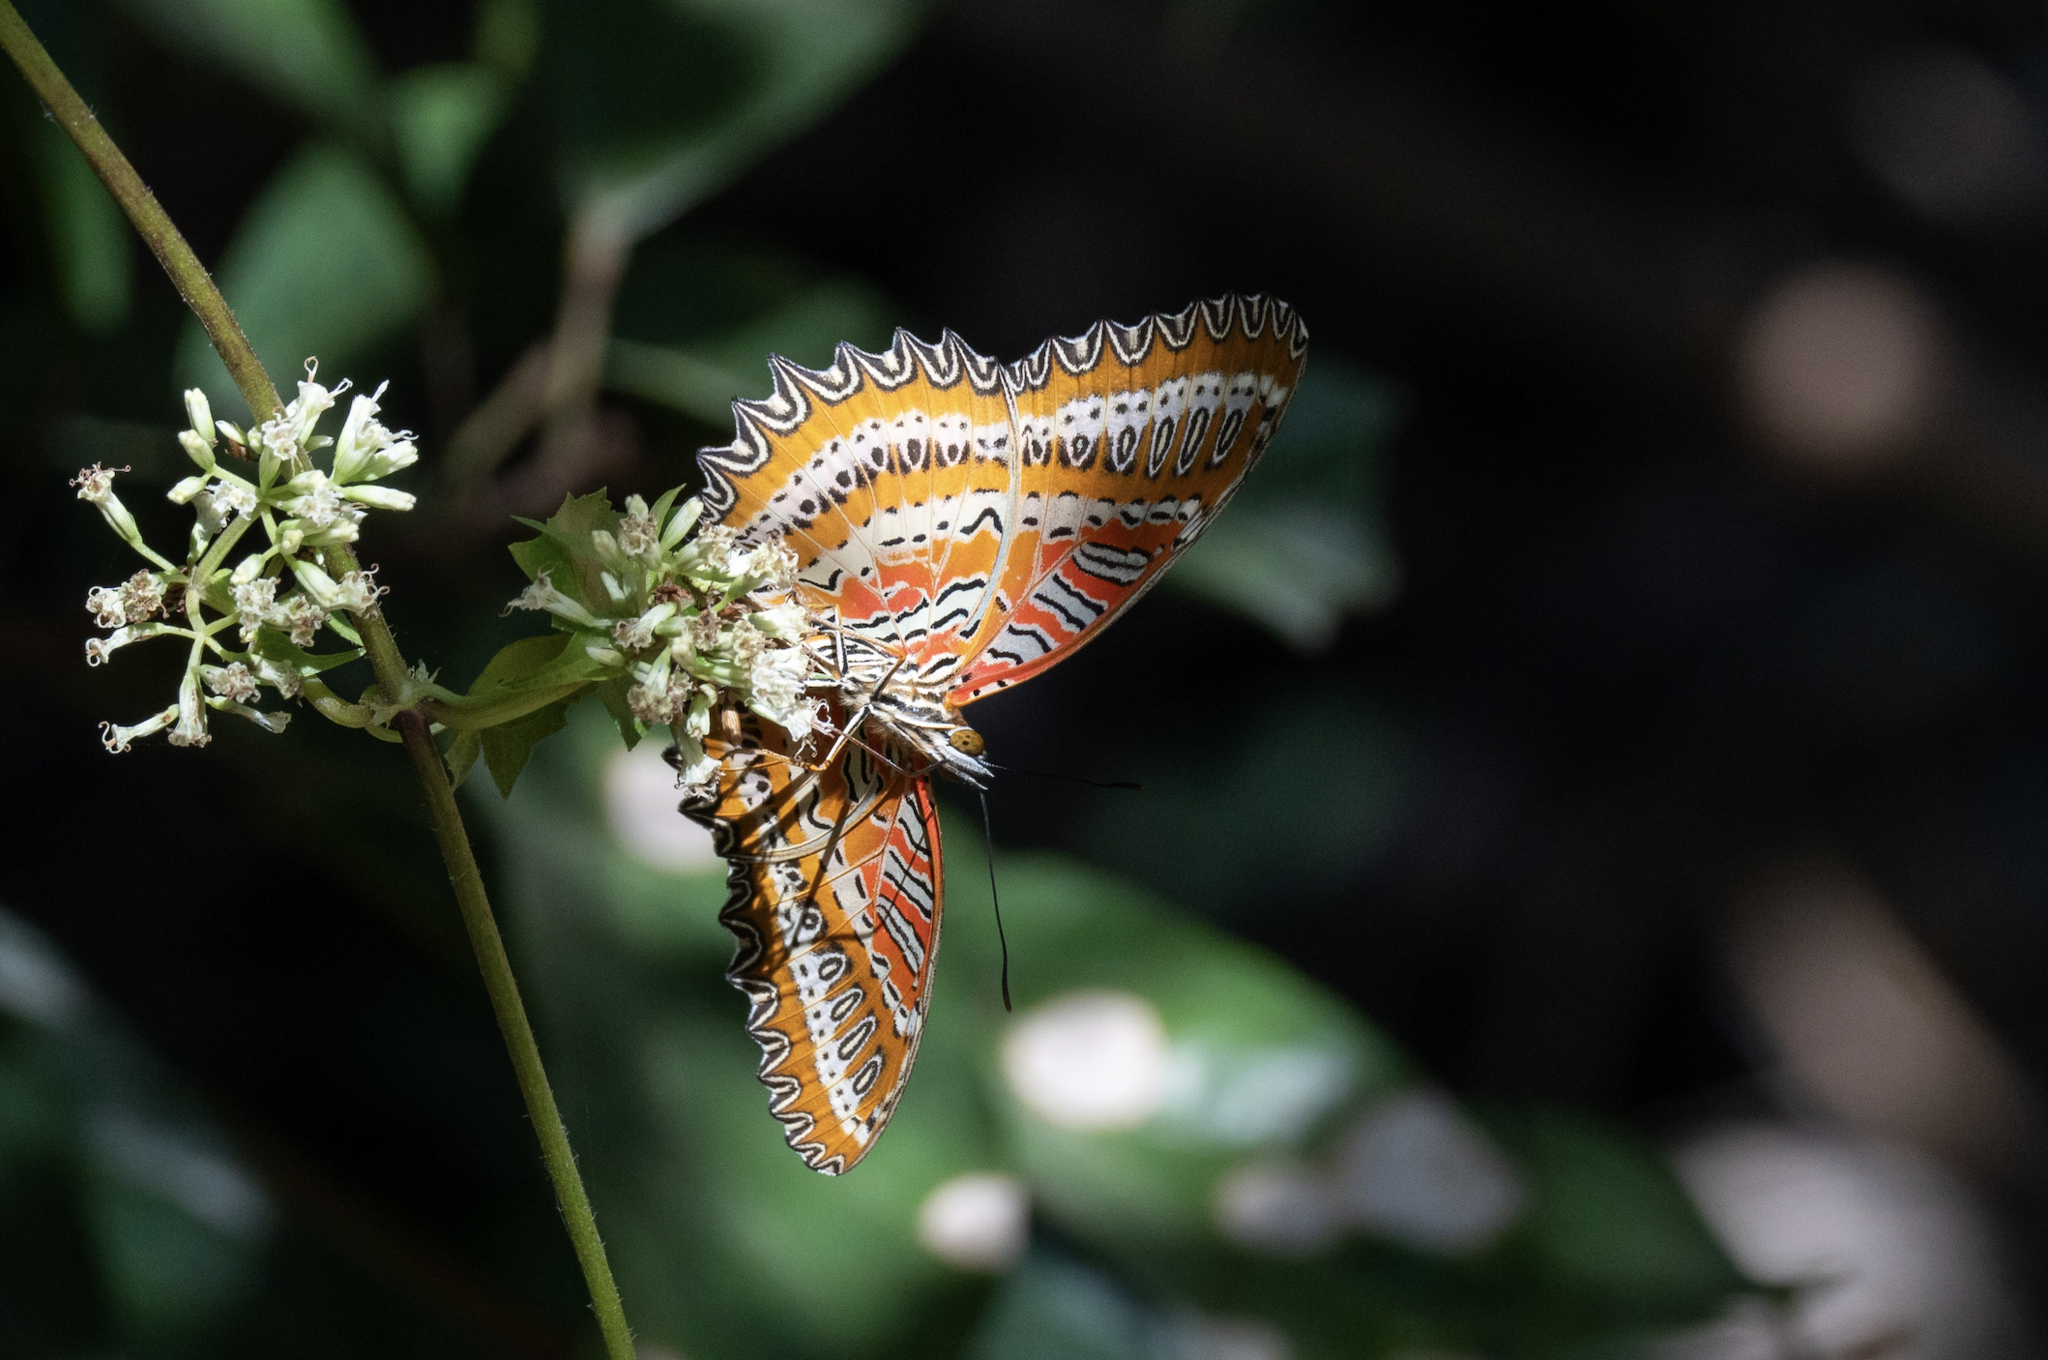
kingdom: Animalia
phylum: Arthropoda
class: Insecta
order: Lepidoptera
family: Nymphalidae
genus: Cethosia
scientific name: Cethosia biblis
